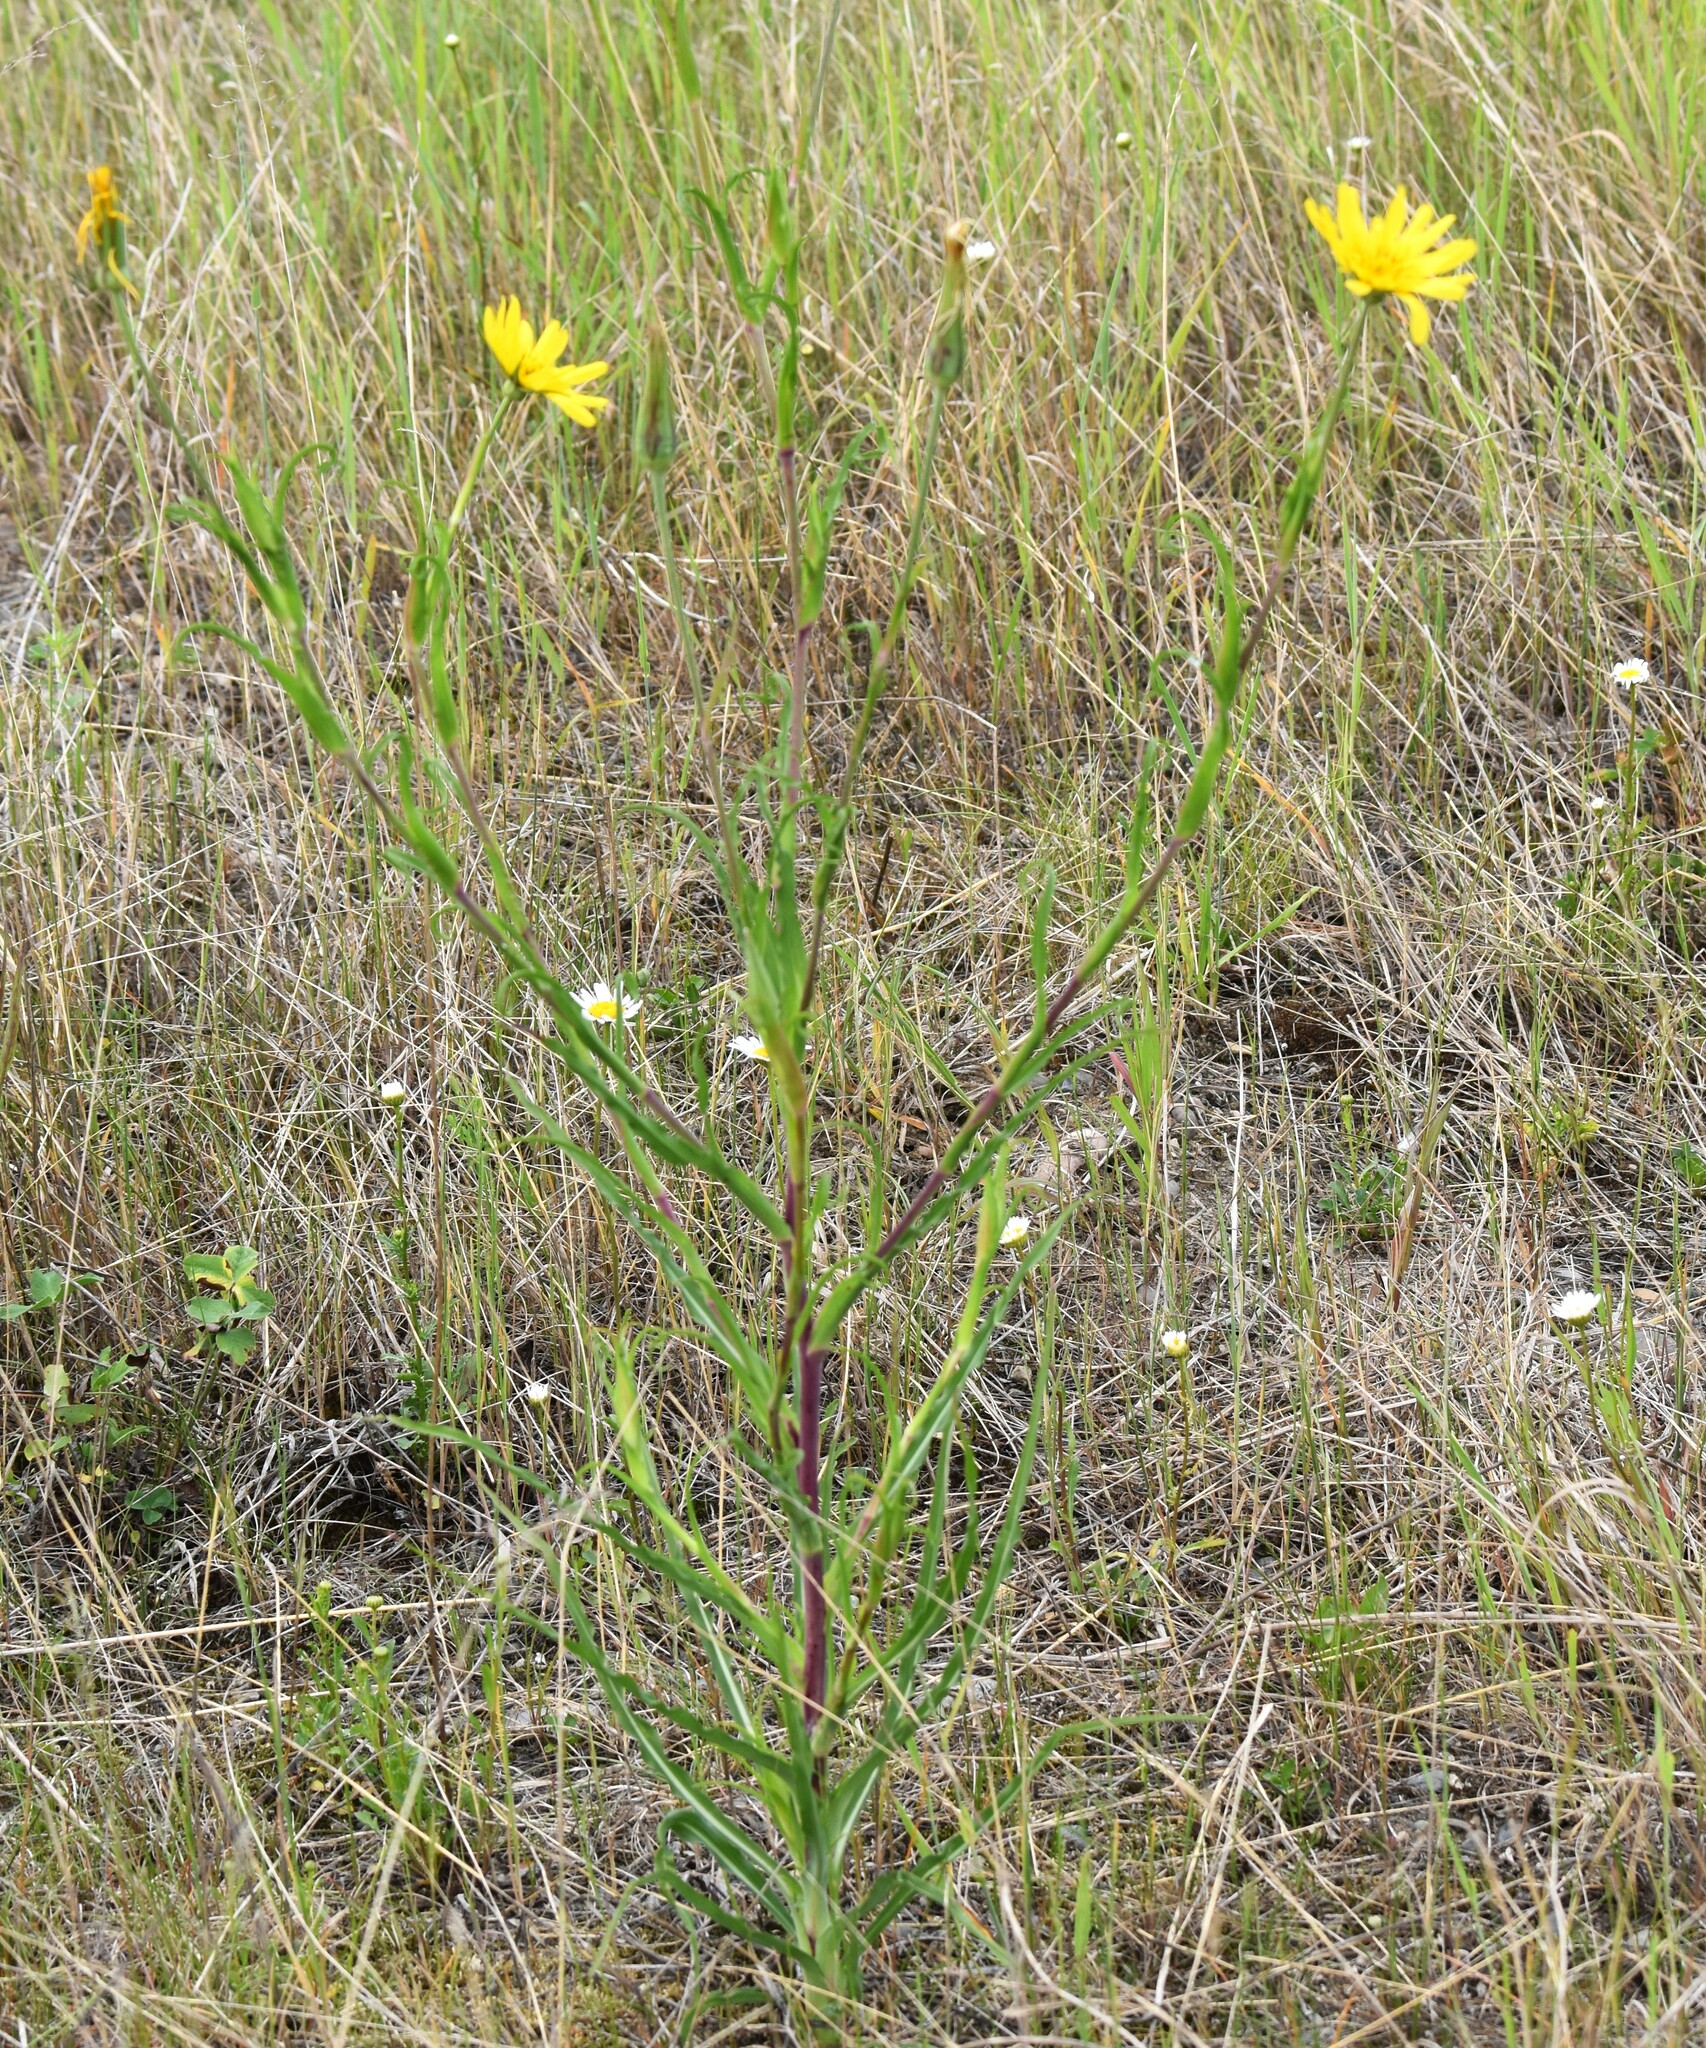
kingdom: Plantae
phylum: Tracheophyta
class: Magnoliopsida
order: Asterales
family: Asteraceae
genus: Tragopogon
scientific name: Tragopogon pratensis
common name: Goat's-beard
